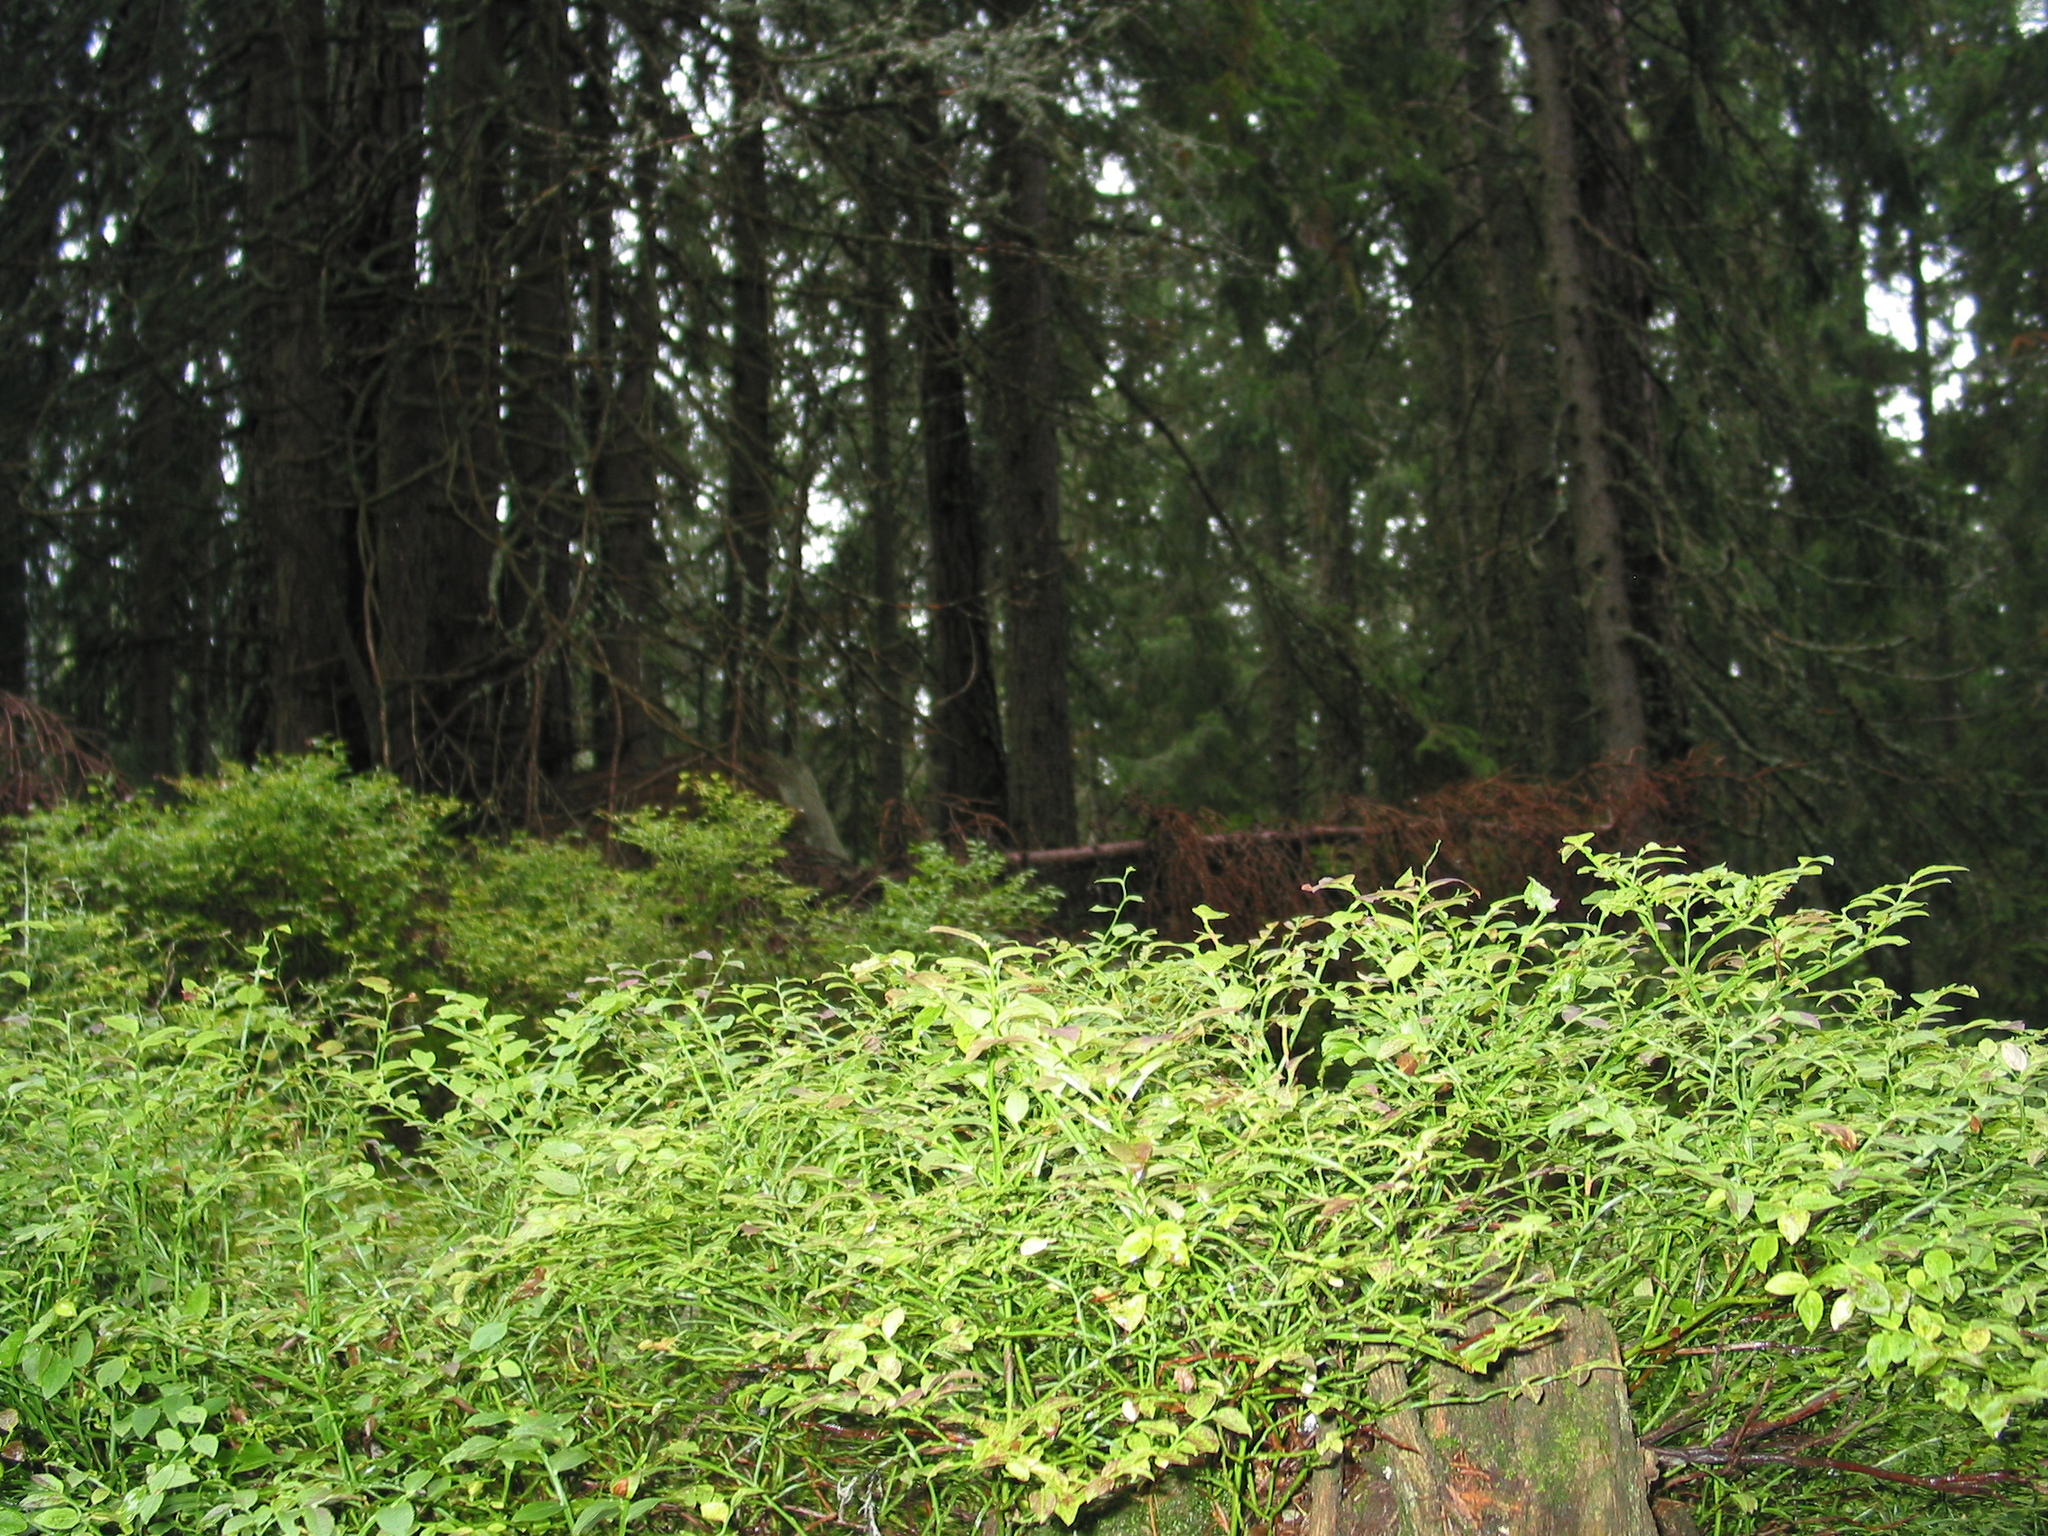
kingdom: Plantae
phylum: Tracheophyta
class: Magnoliopsida
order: Ericales
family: Ericaceae
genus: Vaccinium
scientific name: Vaccinium myrtillus
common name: Bilberry
